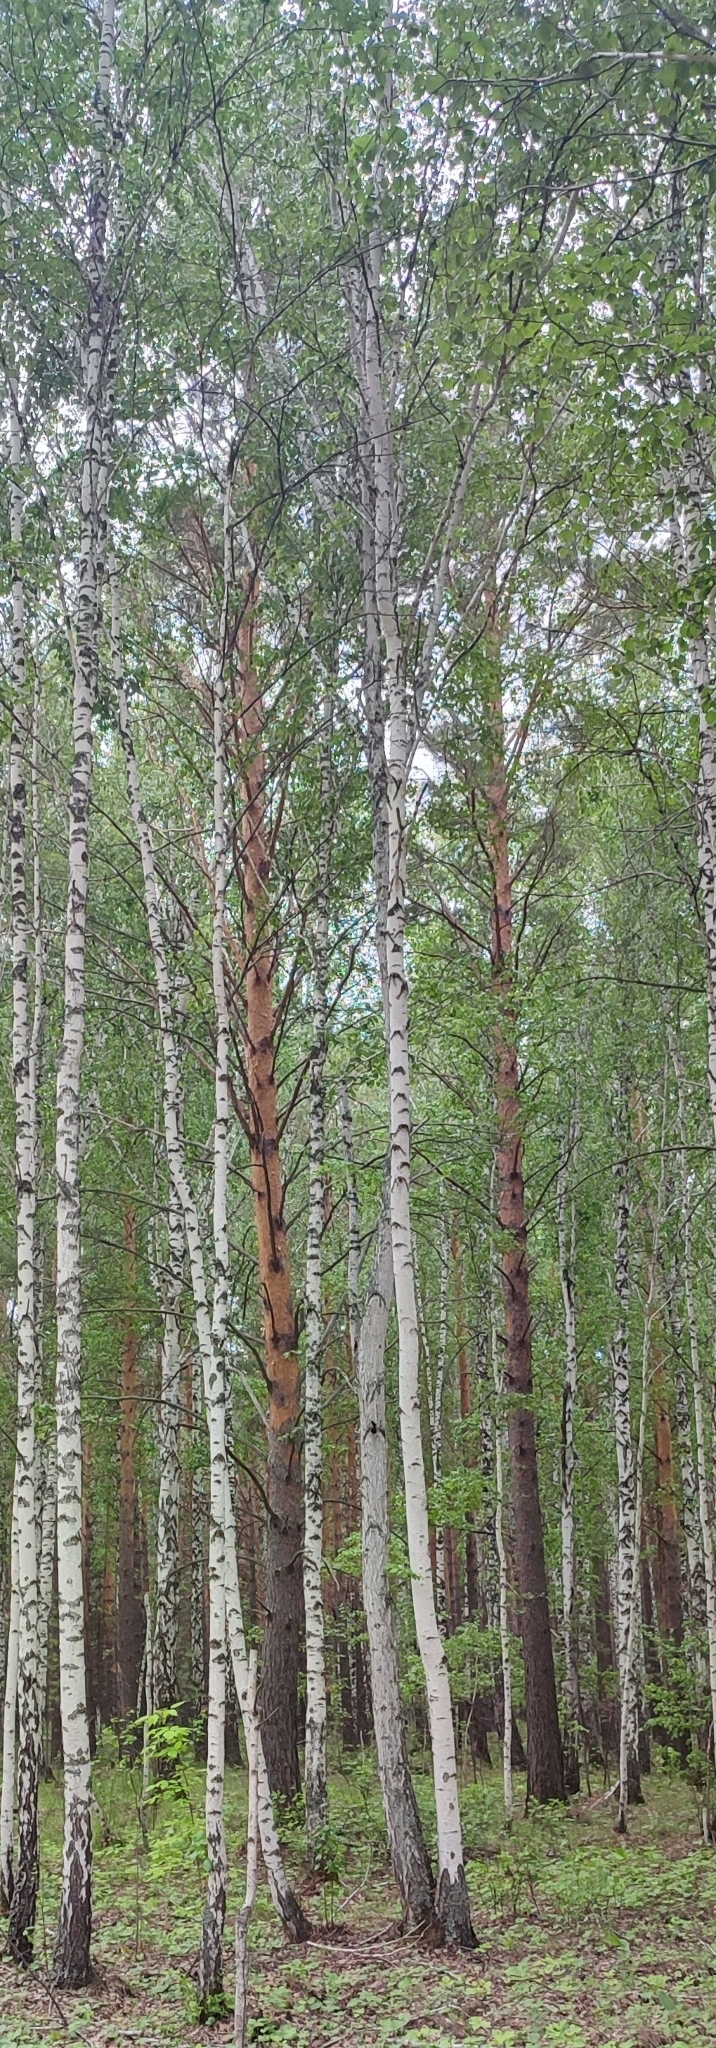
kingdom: Plantae
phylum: Tracheophyta
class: Pinopsida
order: Pinales
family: Pinaceae
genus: Pinus
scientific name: Pinus sylvestris
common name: Scots pine
